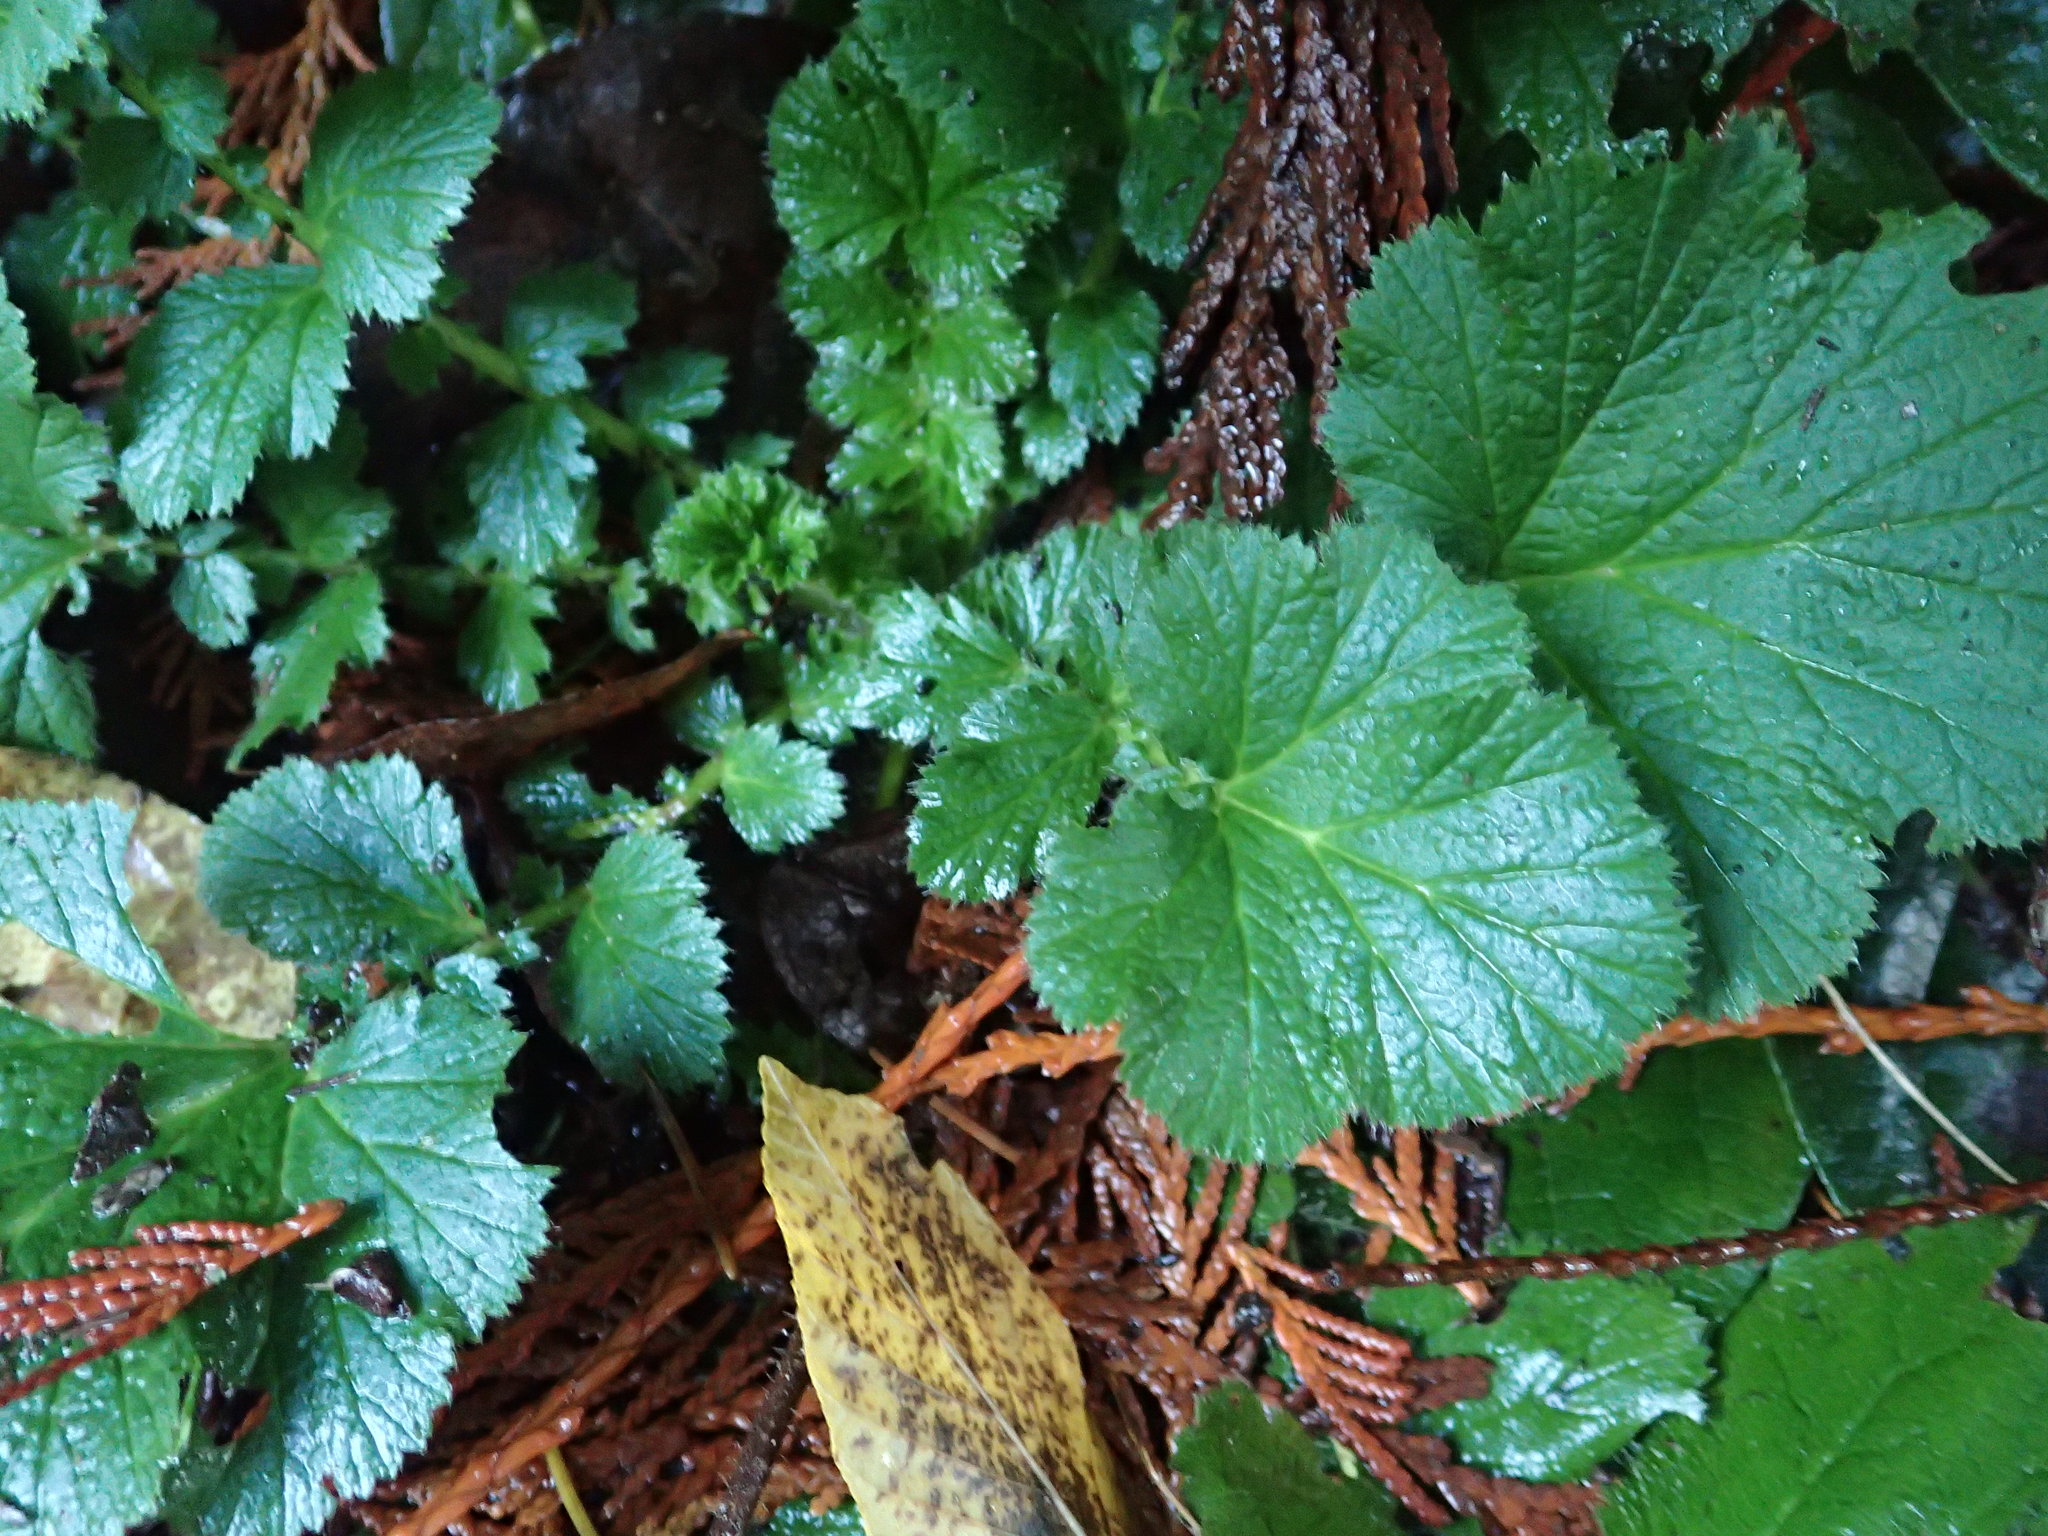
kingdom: Plantae
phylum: Tracheophyta
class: Magnoliopsida
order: Rosales
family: Rosaceae
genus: Geum
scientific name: Geum macrophyllum
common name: Large-leaved avens
